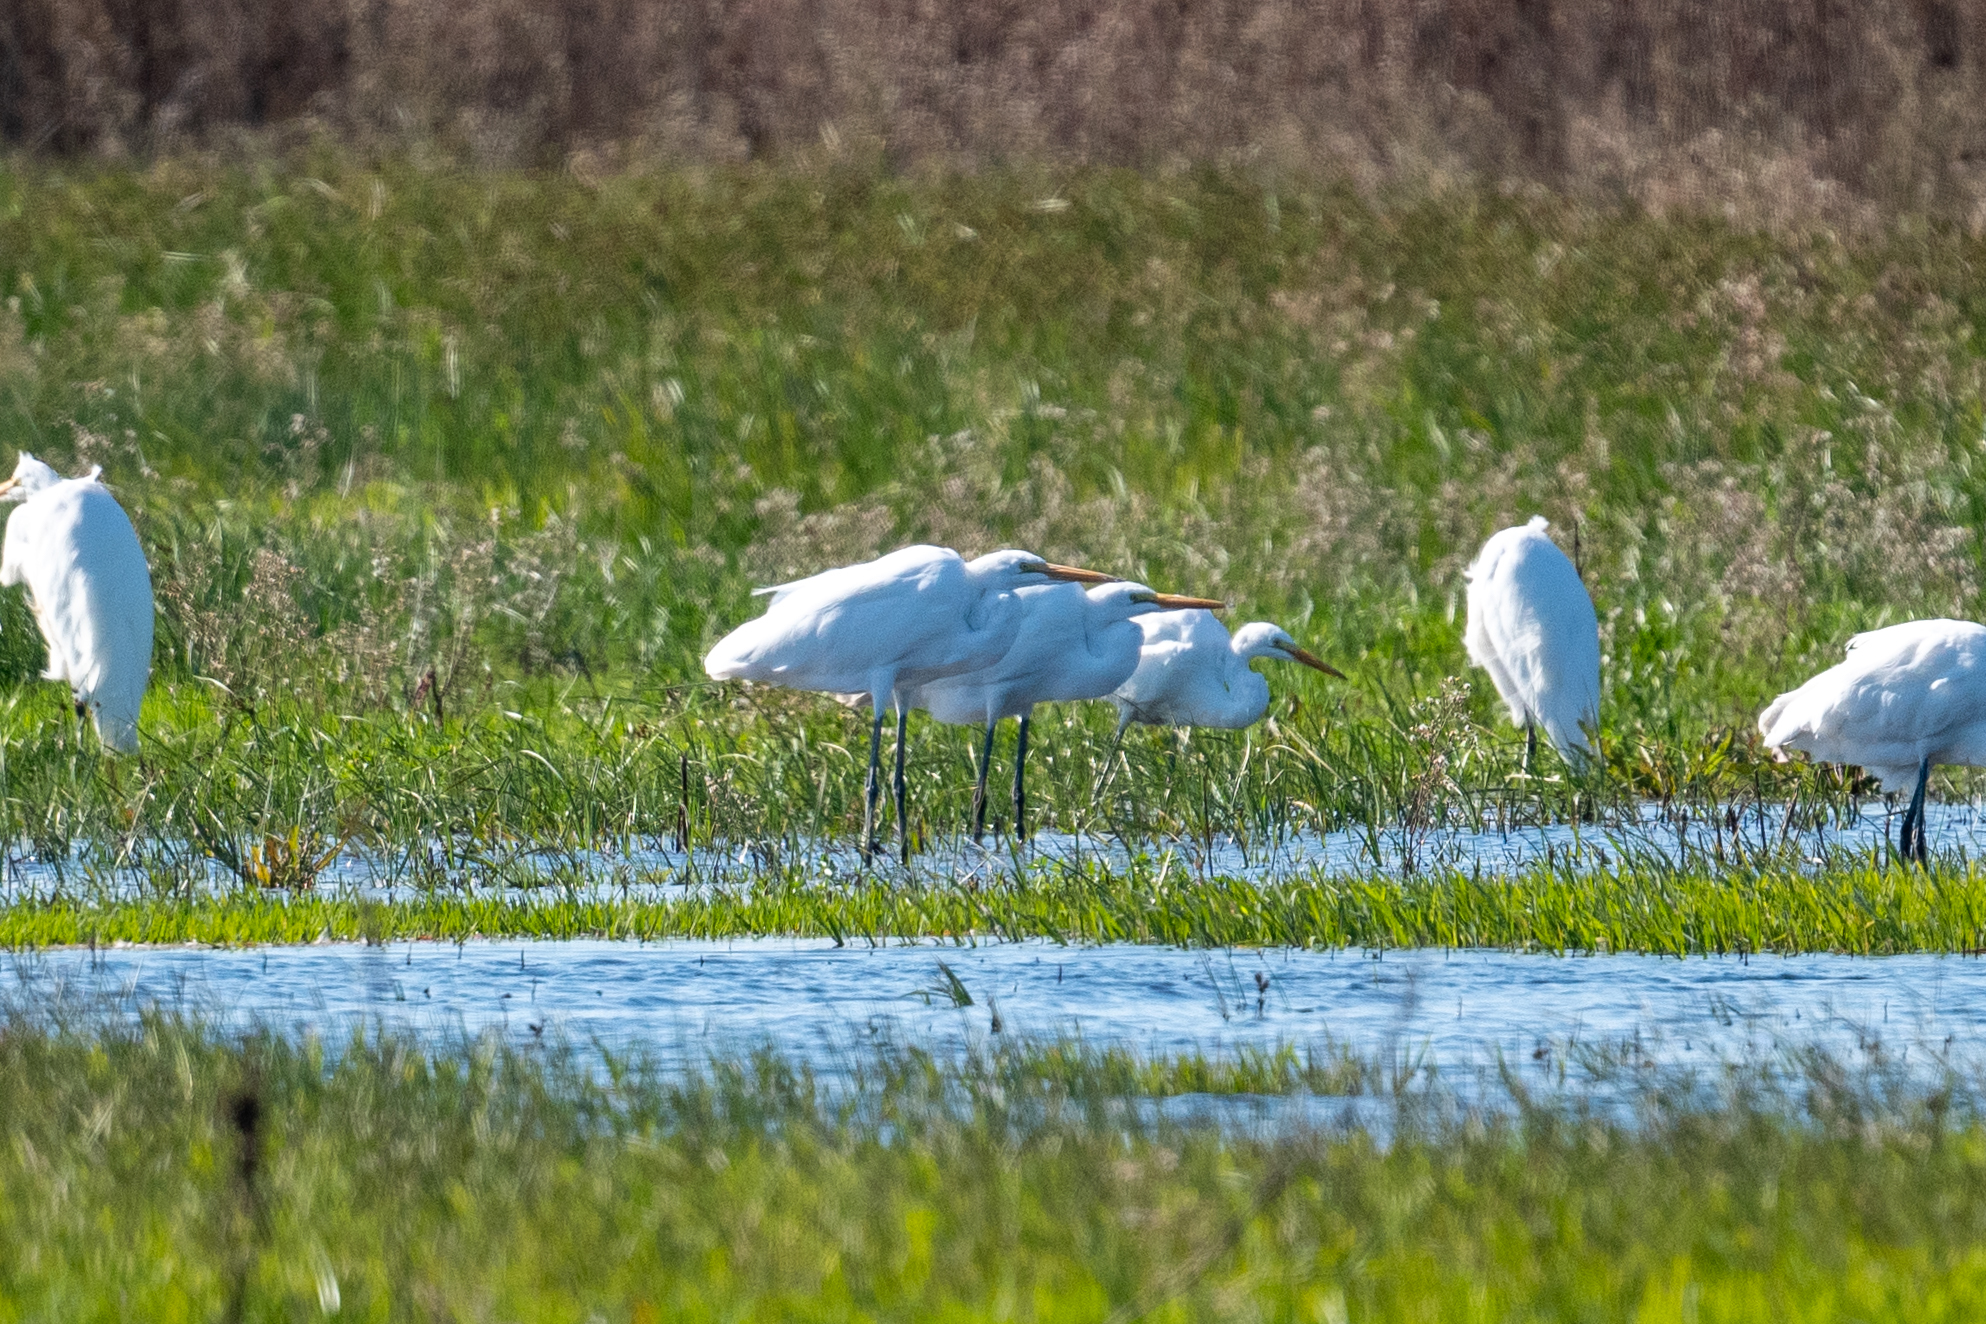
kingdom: Animalia
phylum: Chordata
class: Aves
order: Pelecaniformes
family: Ardeidae
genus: Ardea
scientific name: Ardea alba
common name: Great egret
